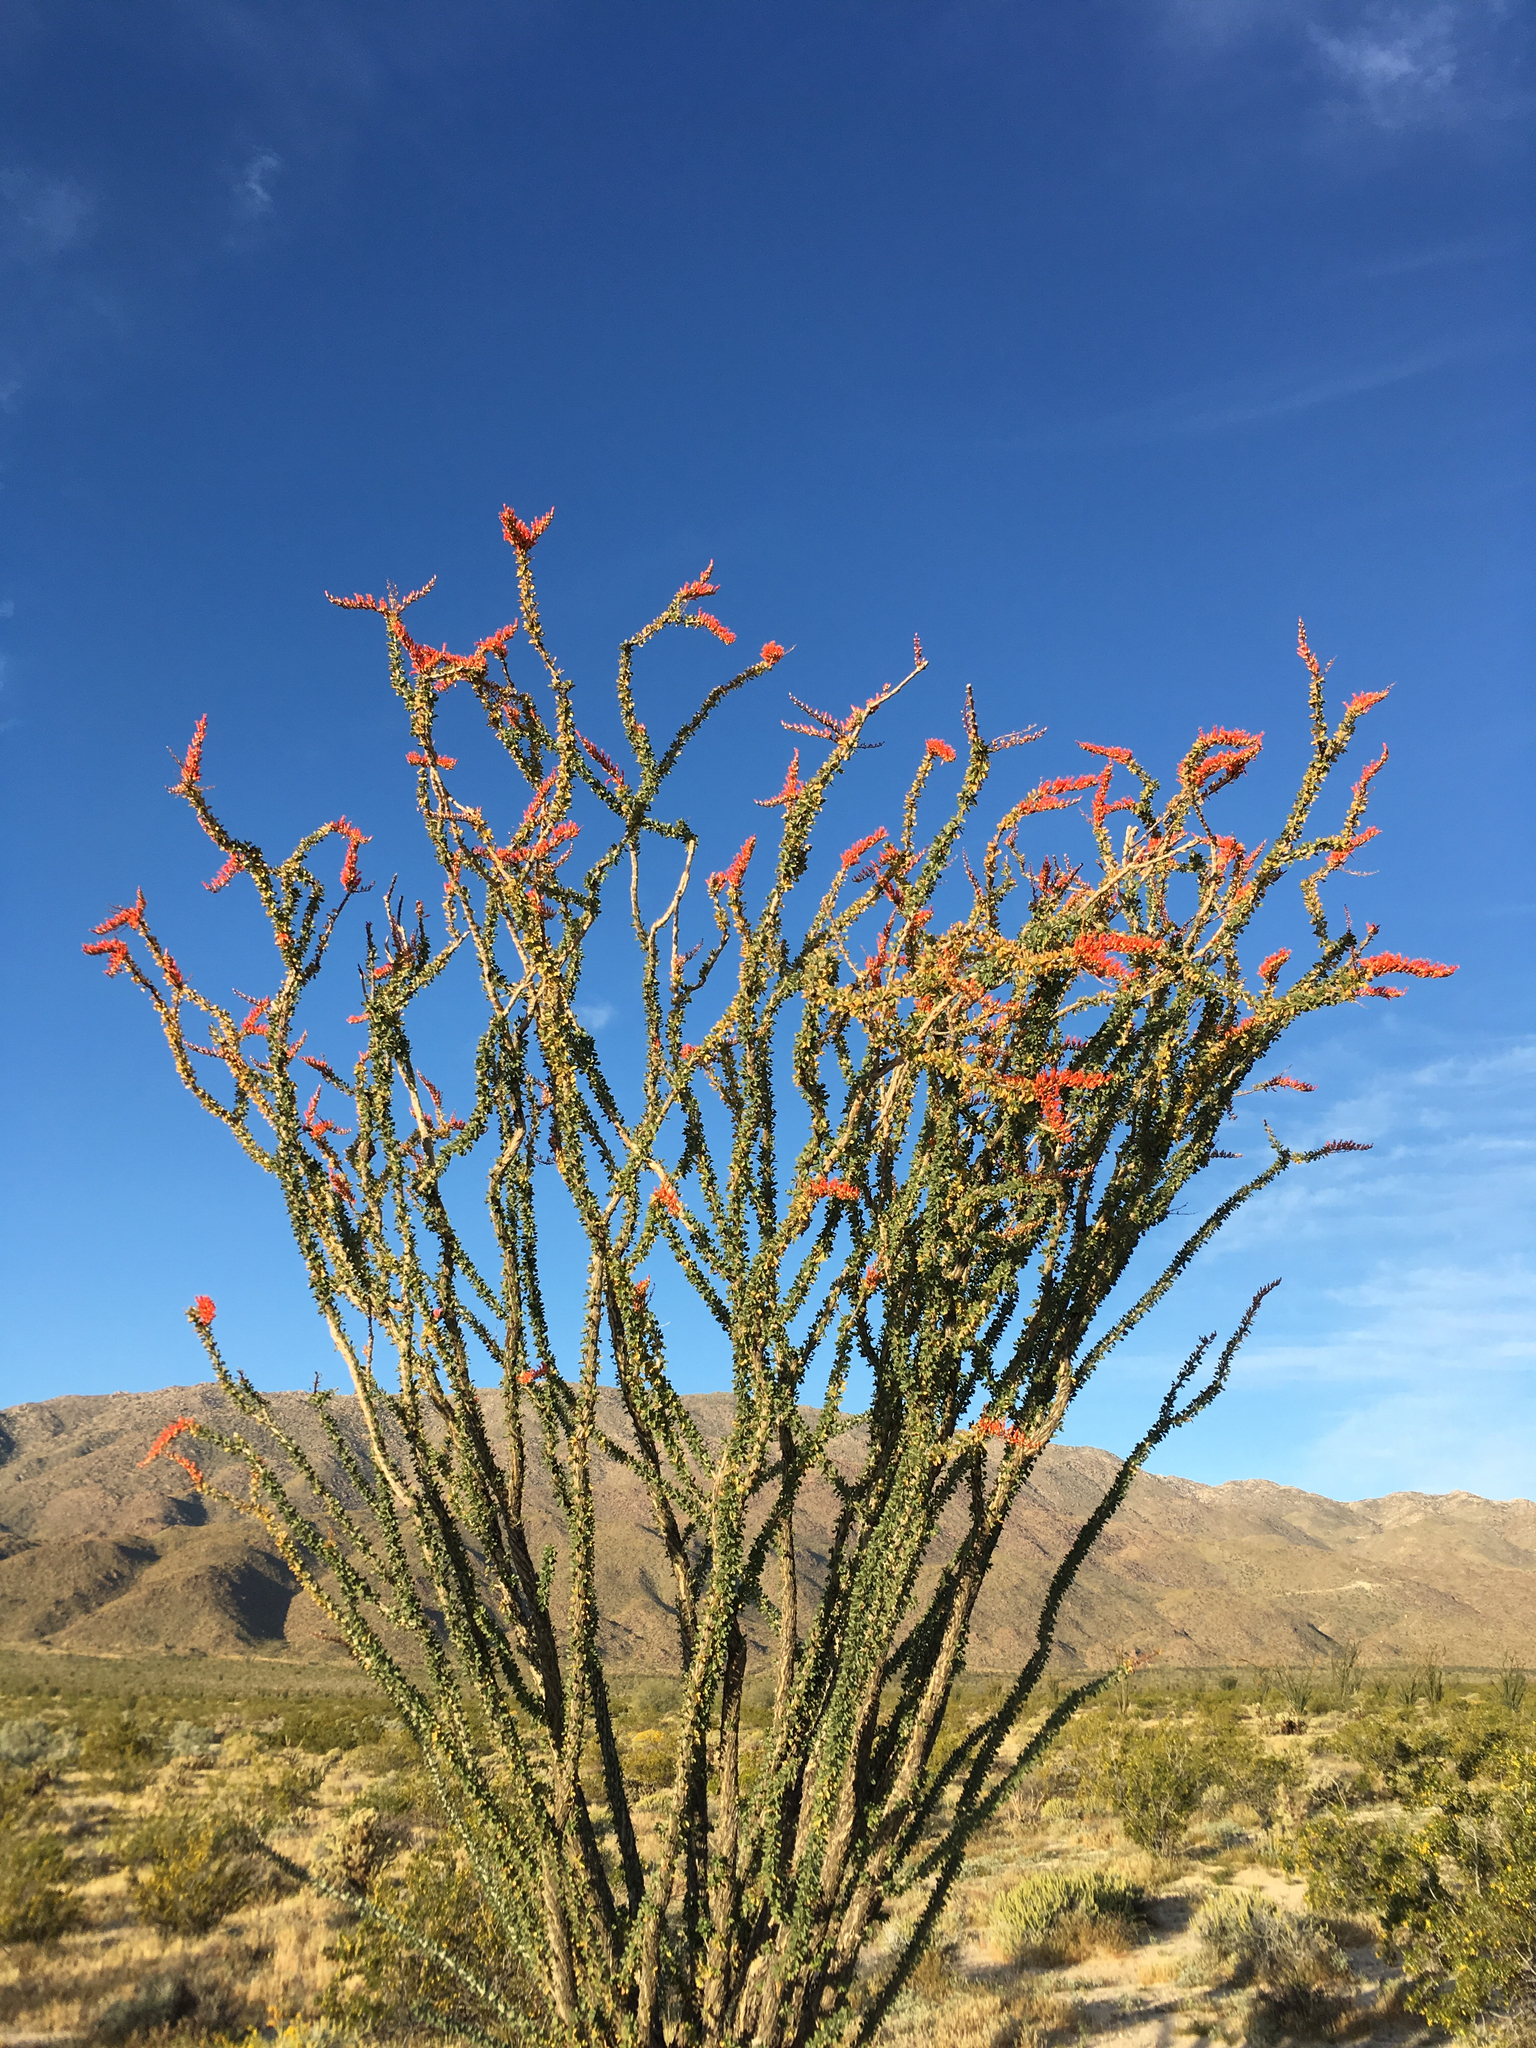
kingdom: Plantae
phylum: Tracheophyta
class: Magnoliopsida
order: Ericales
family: Fouquieriaceae
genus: Fouquieria
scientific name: Fouquieria splendens
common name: Vine-cactus
